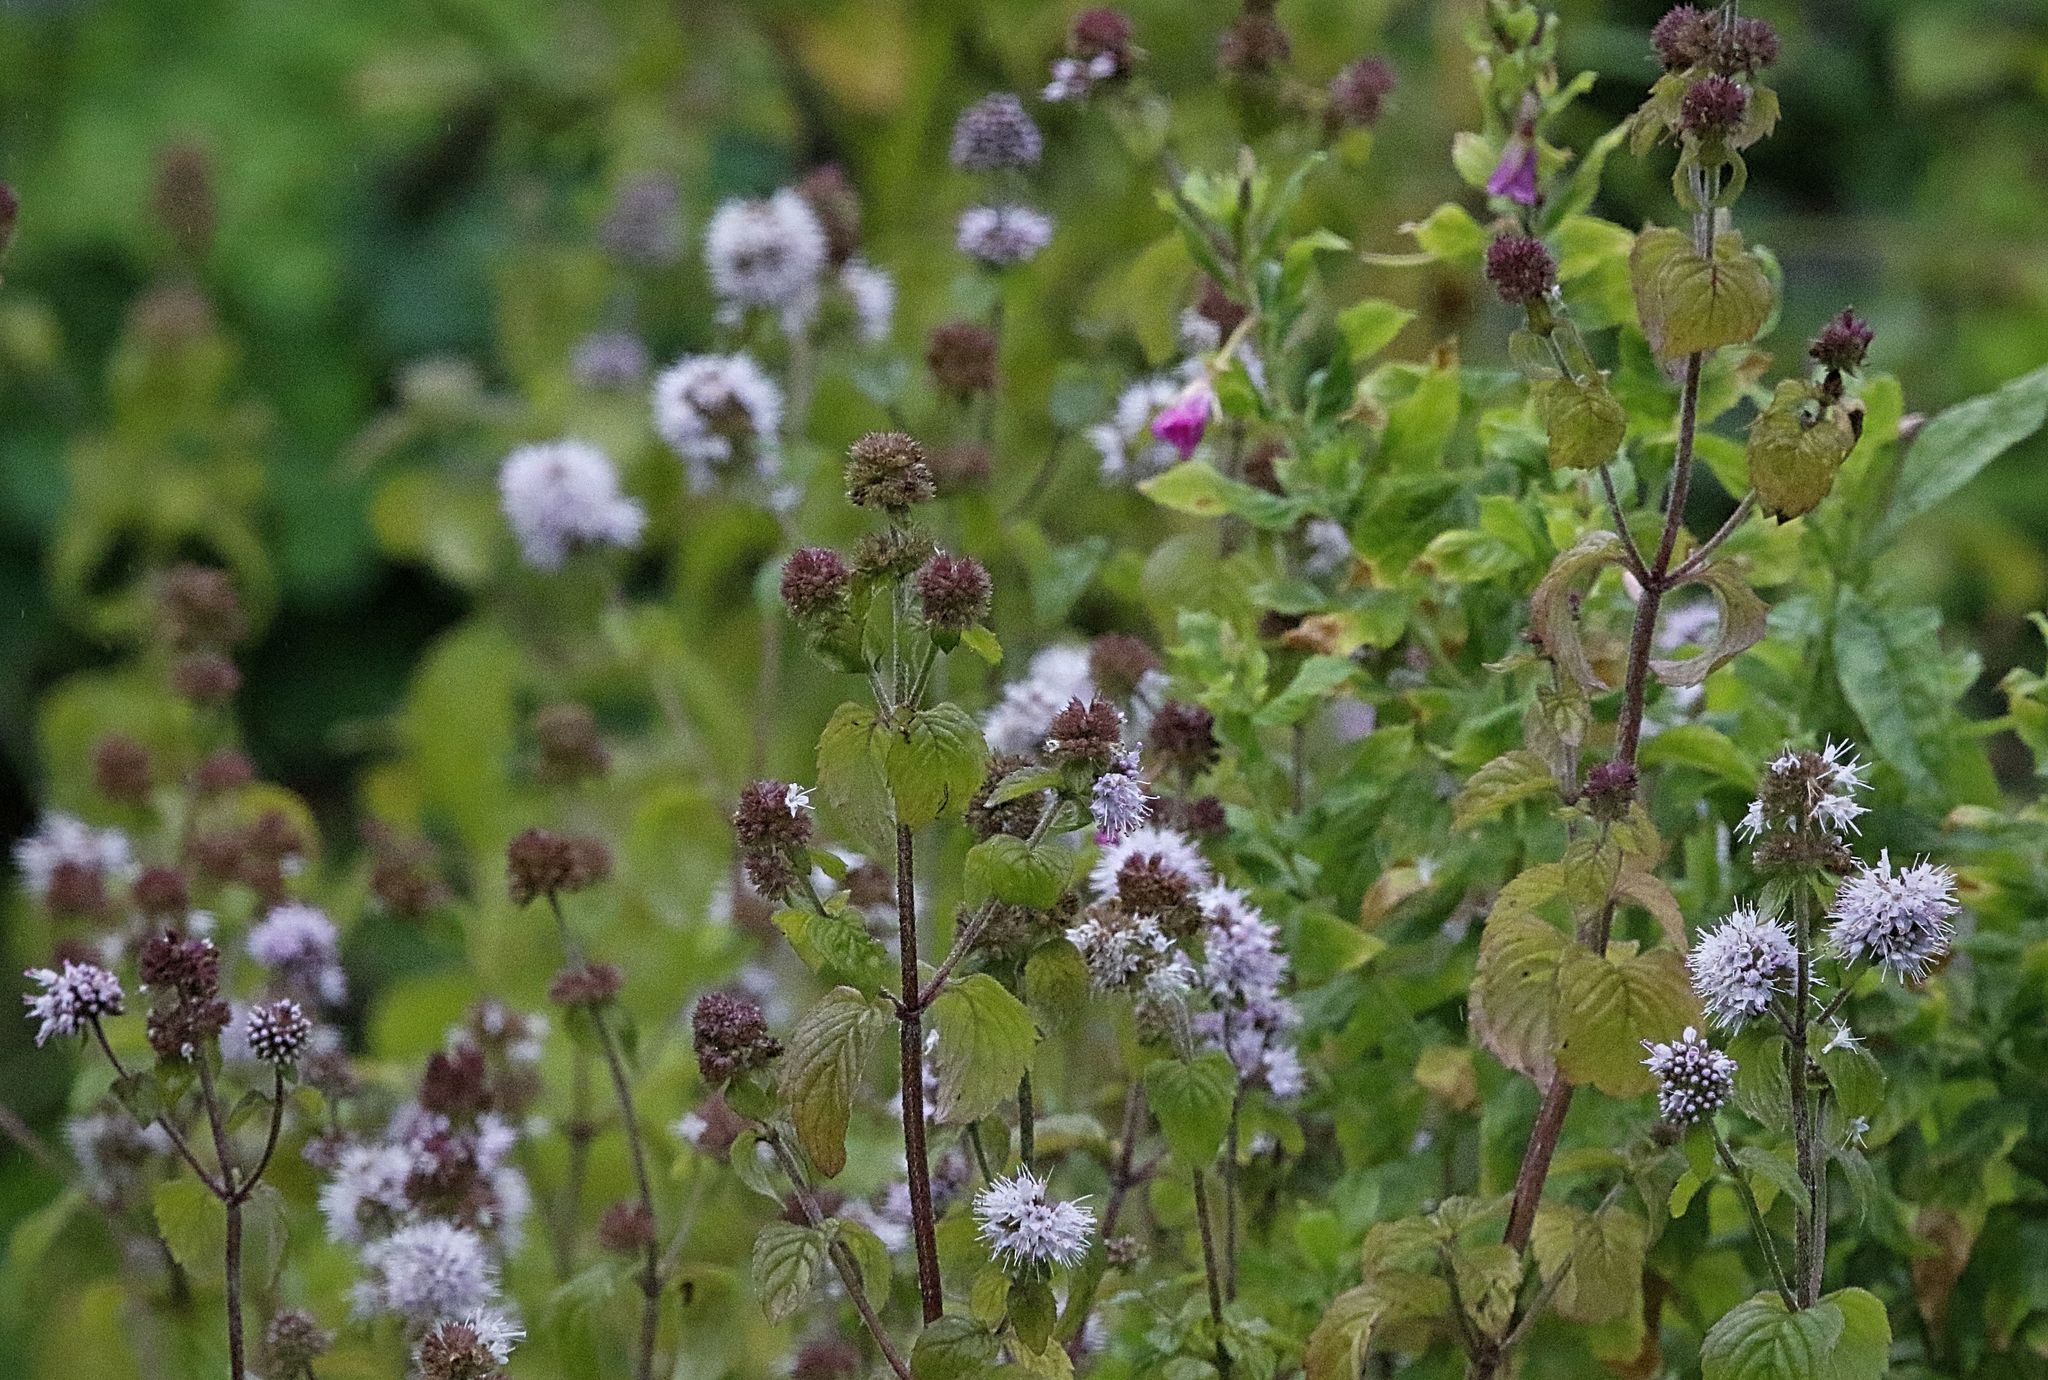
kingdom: Plantae
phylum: Tracheophyta
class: Magnoliopsida
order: Lamiales
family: Lamiaceae
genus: Mentha
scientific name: Mentha aquatica
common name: Water mint
